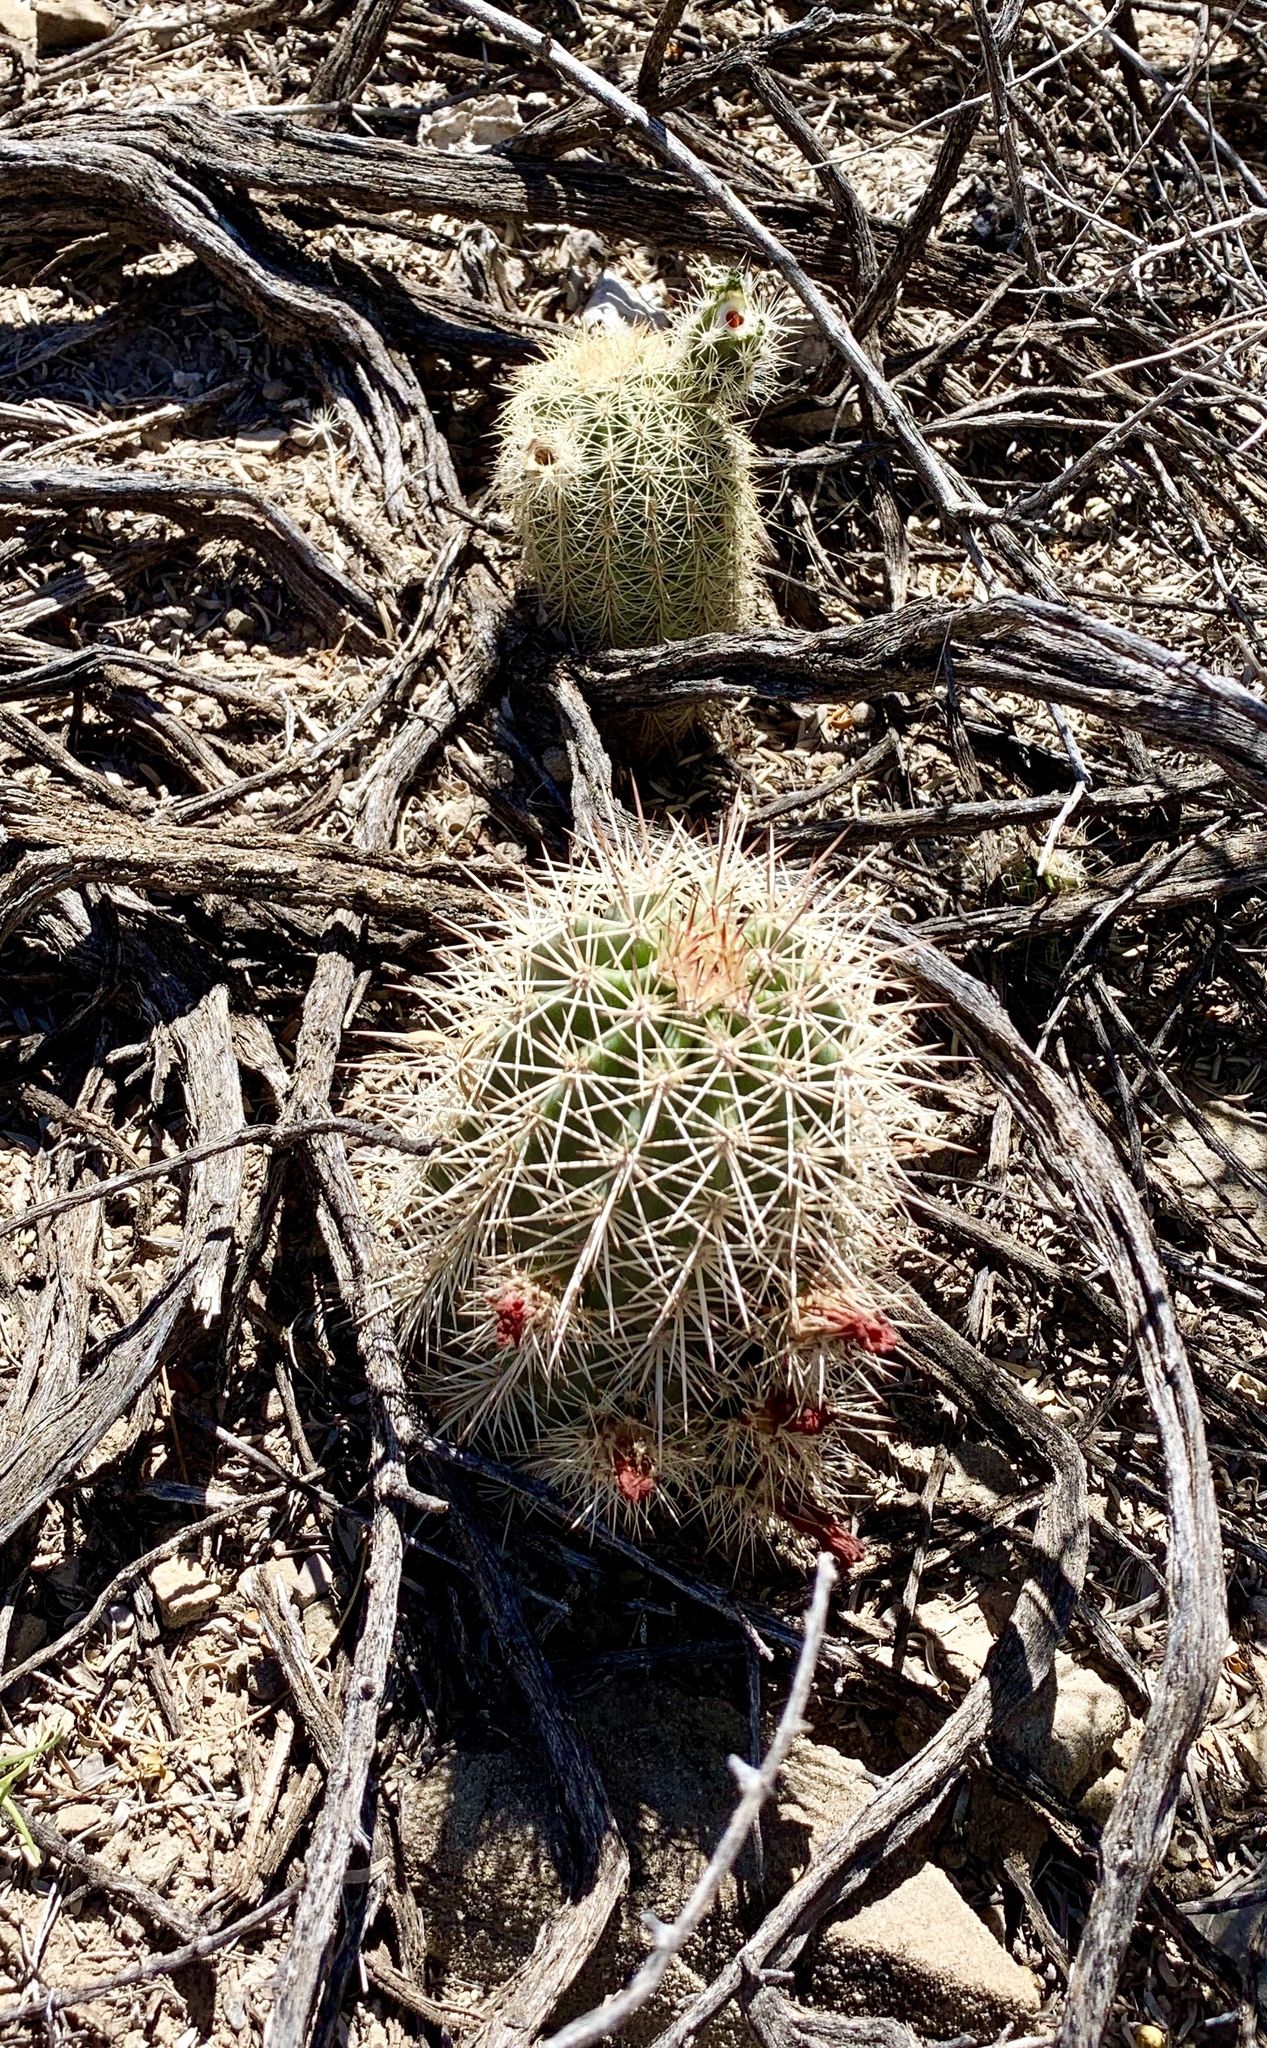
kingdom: Plantae
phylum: Tracheophyta
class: Magnoliopsida
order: Caryophyllales
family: Cactaceae
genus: Echinocereus
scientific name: Echinocereus roetteri
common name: Lloyd's hedgehog cactus
